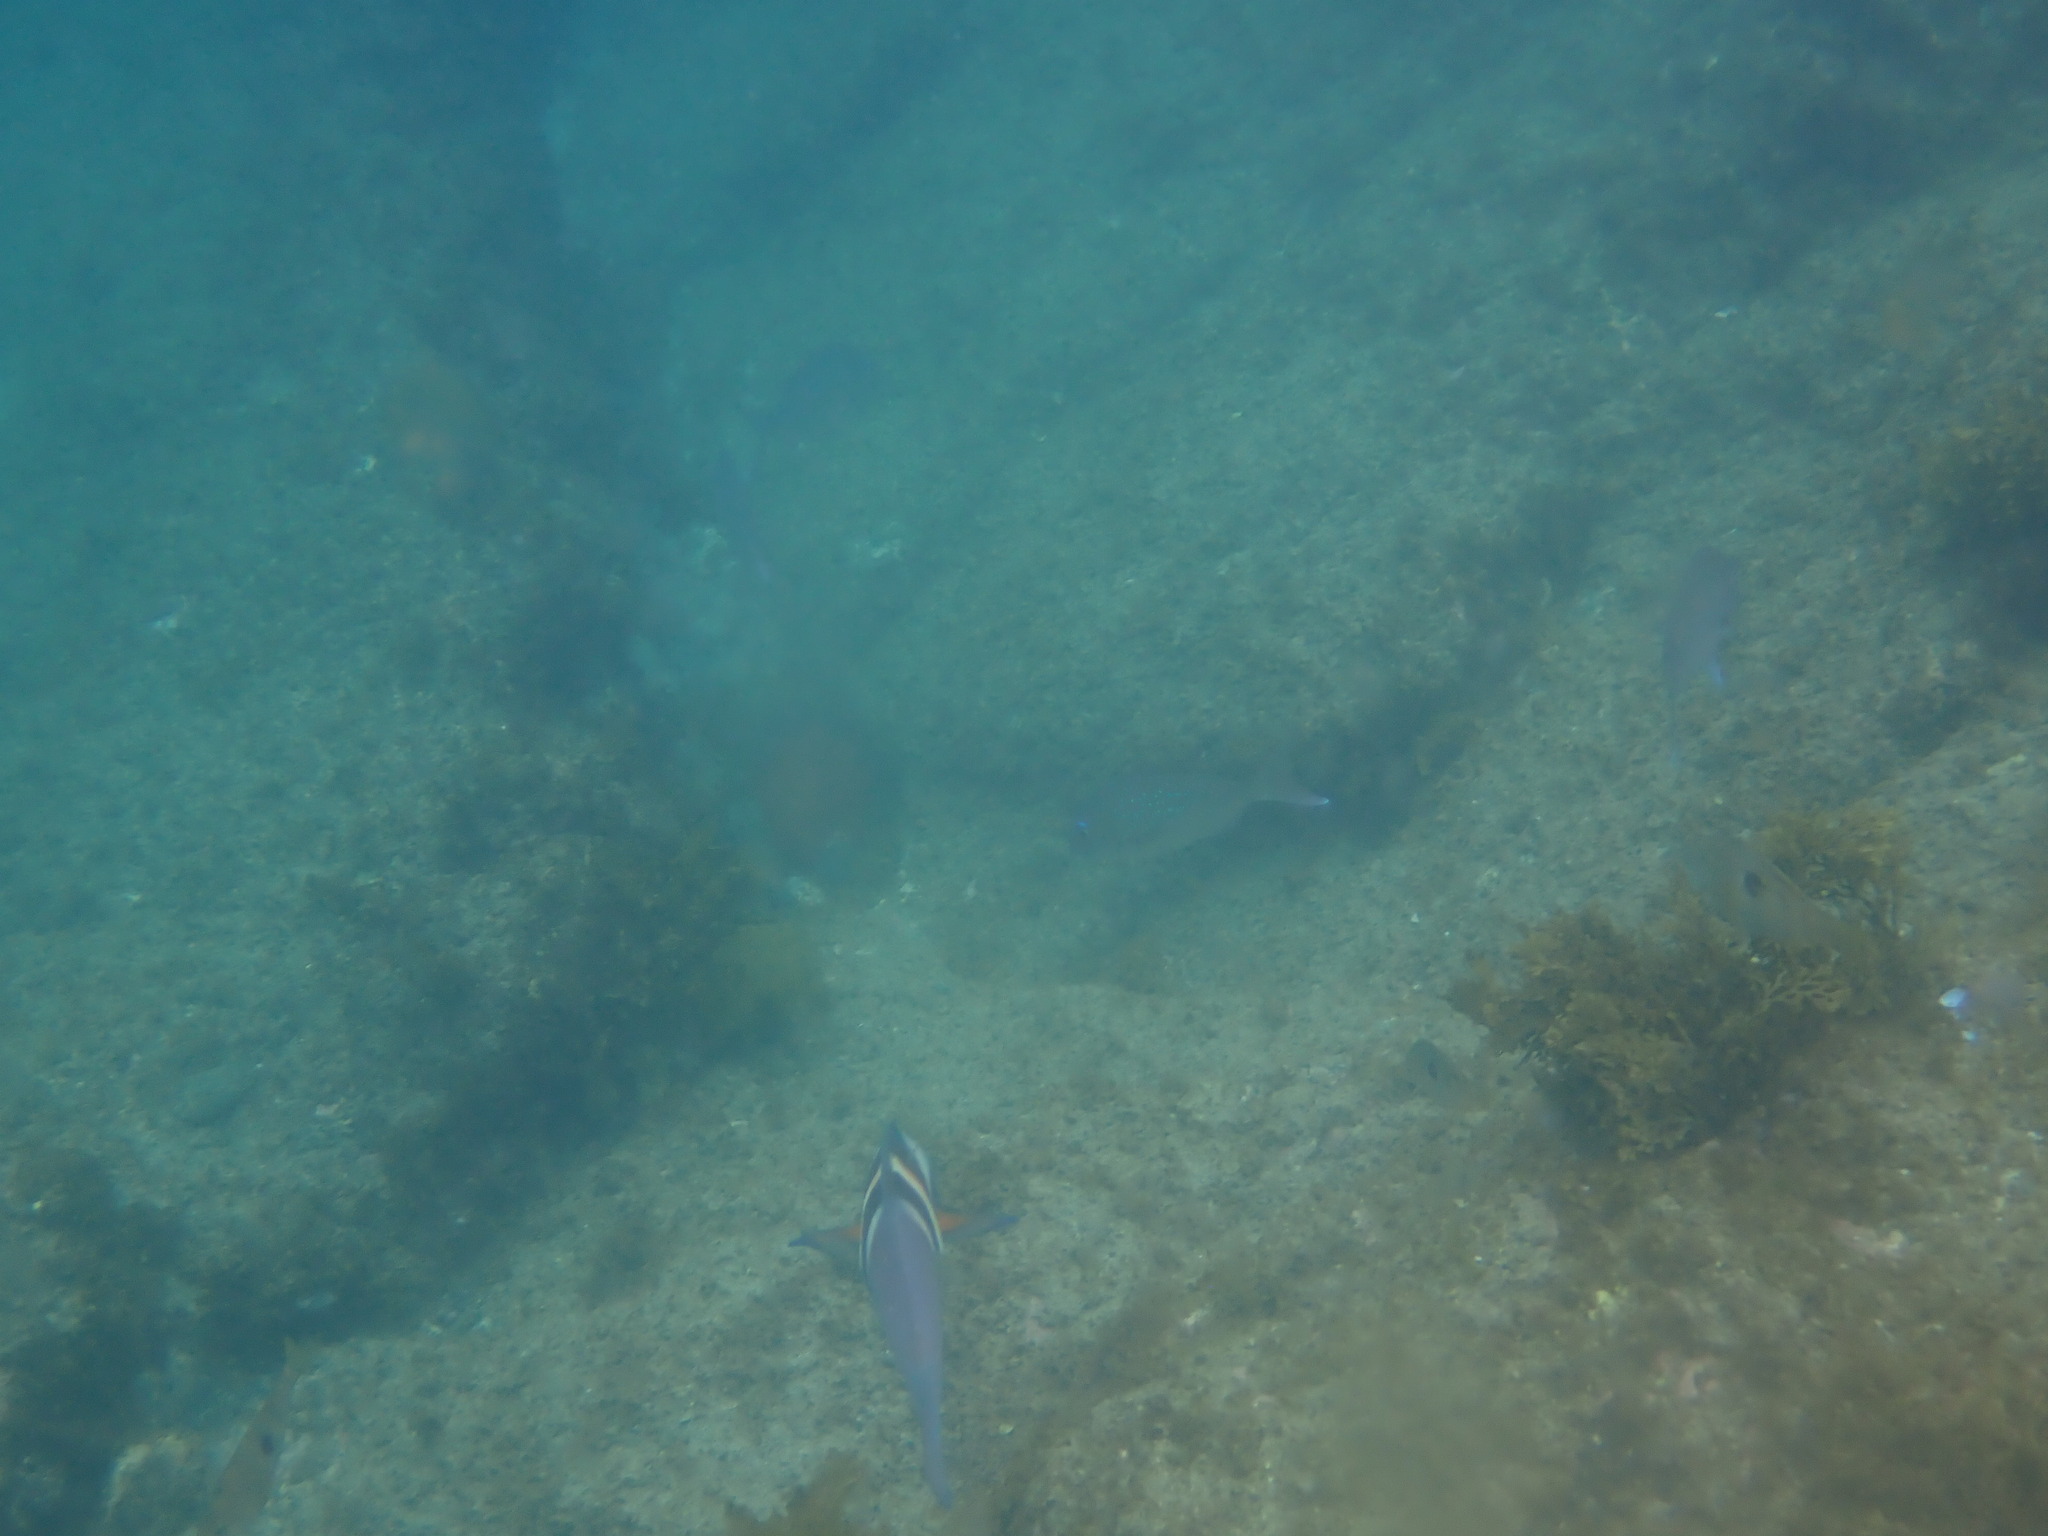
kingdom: Animalia
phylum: Chordata
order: Perciformes
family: Labridae
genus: Coris
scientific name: Coris sandeyeri
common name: Sandager's wrasse
